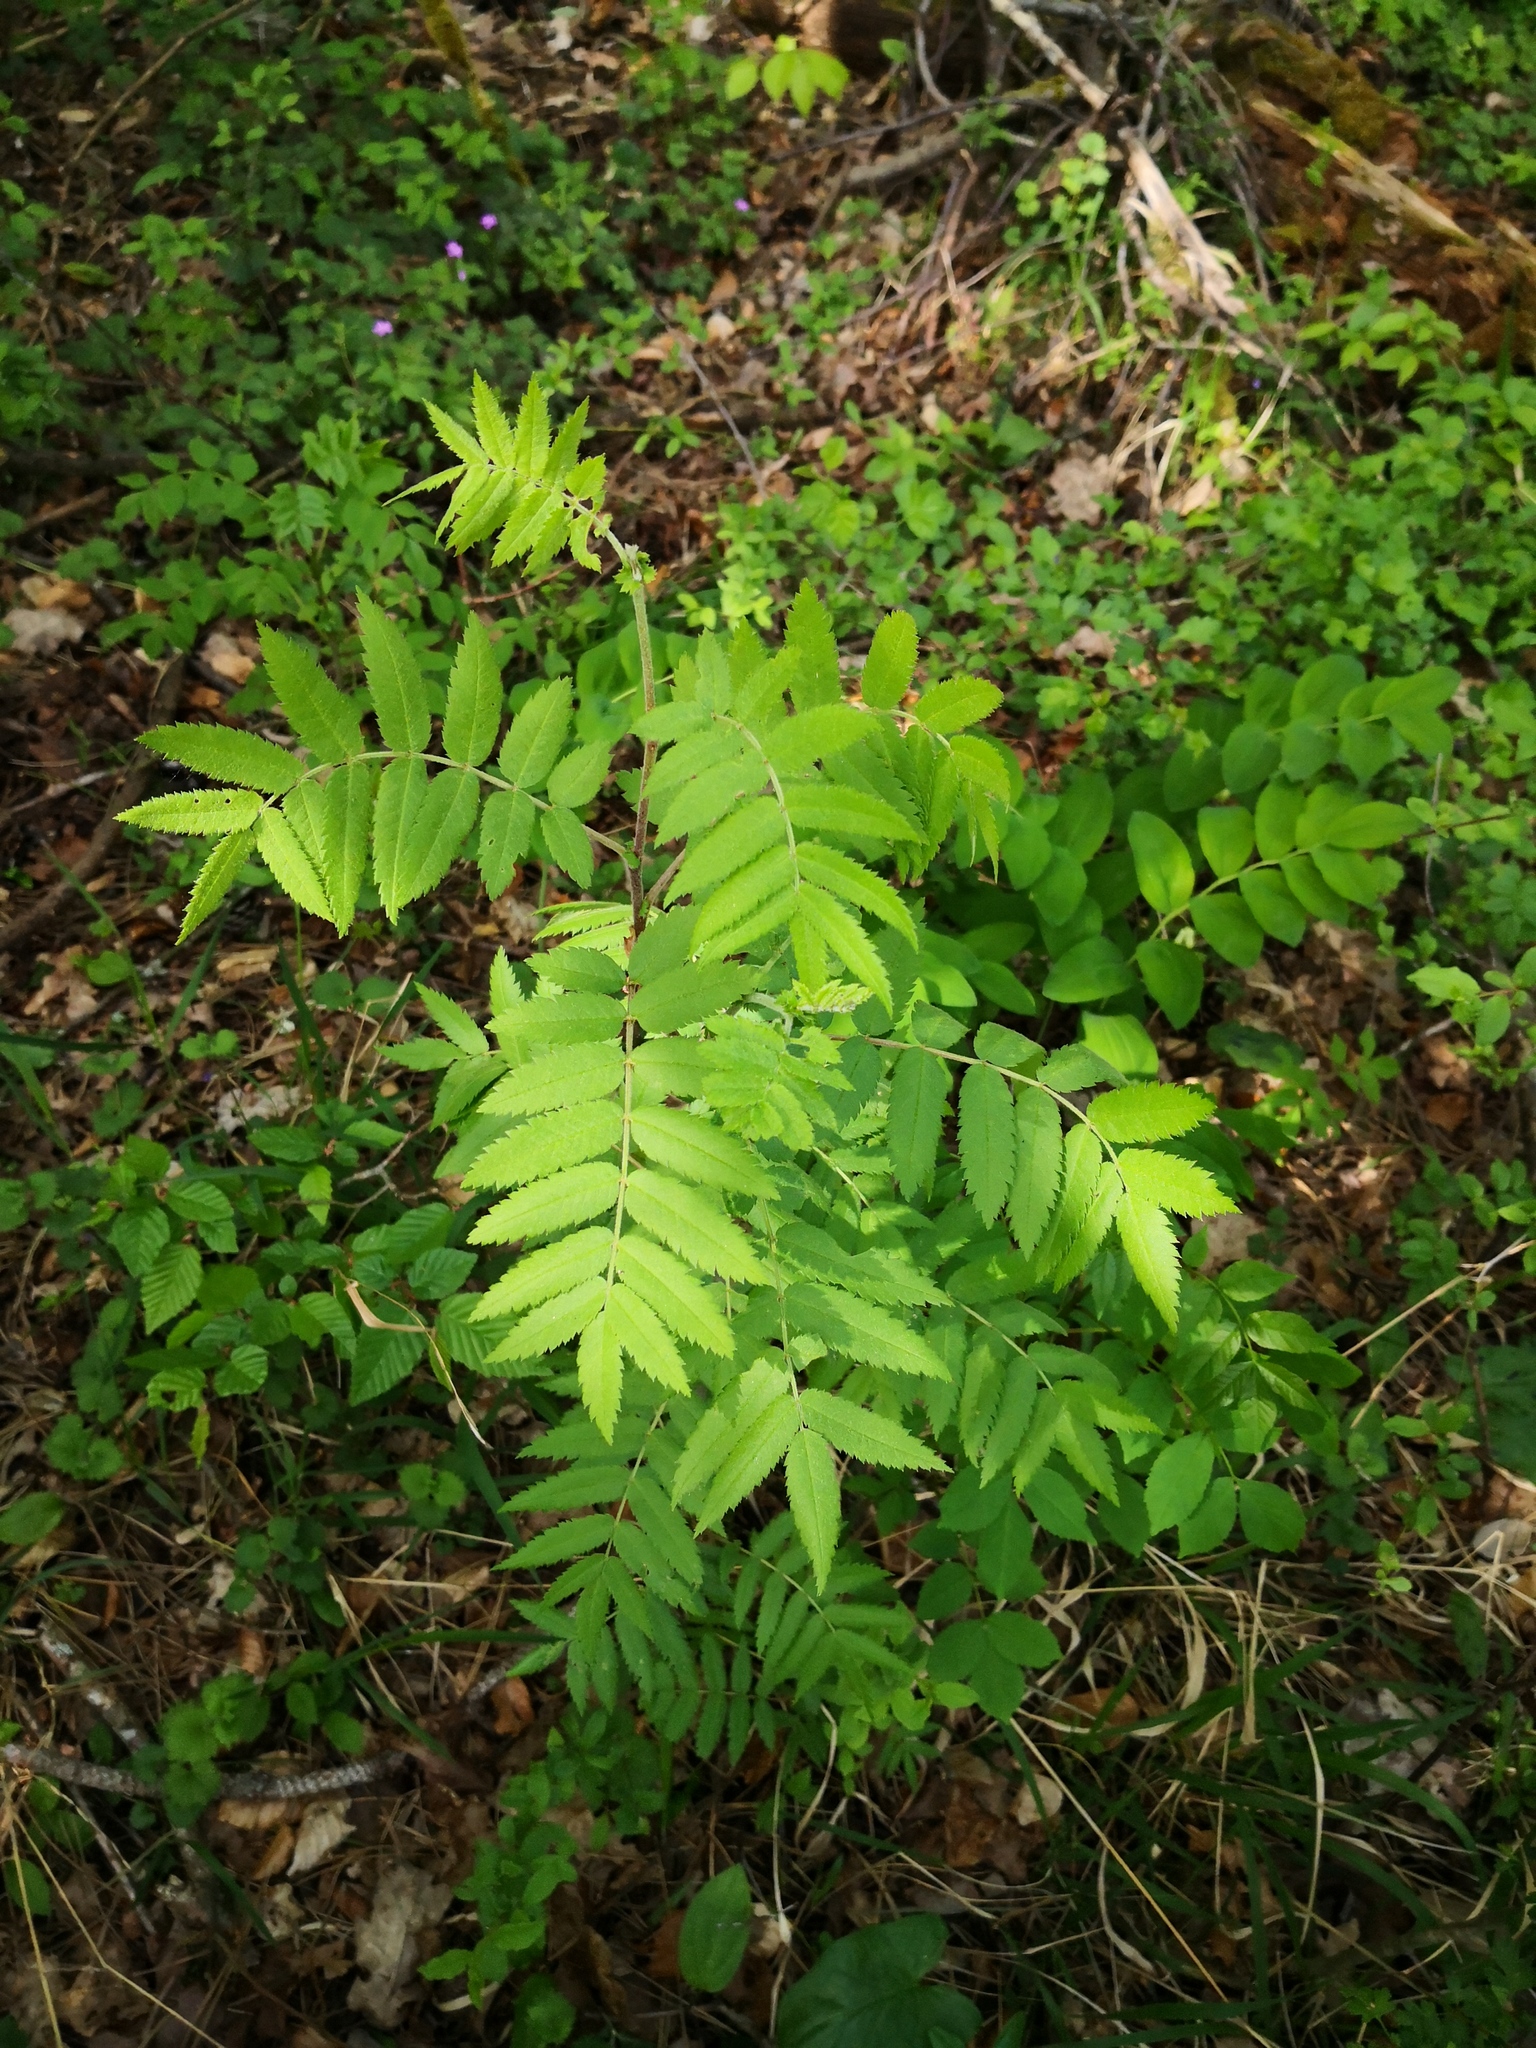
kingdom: Plantae
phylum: Tracheophyta
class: Magnoliopsida
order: Rosales
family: Rosaceae
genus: Sorbus
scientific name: Sorbus aucuparia
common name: Rowan
